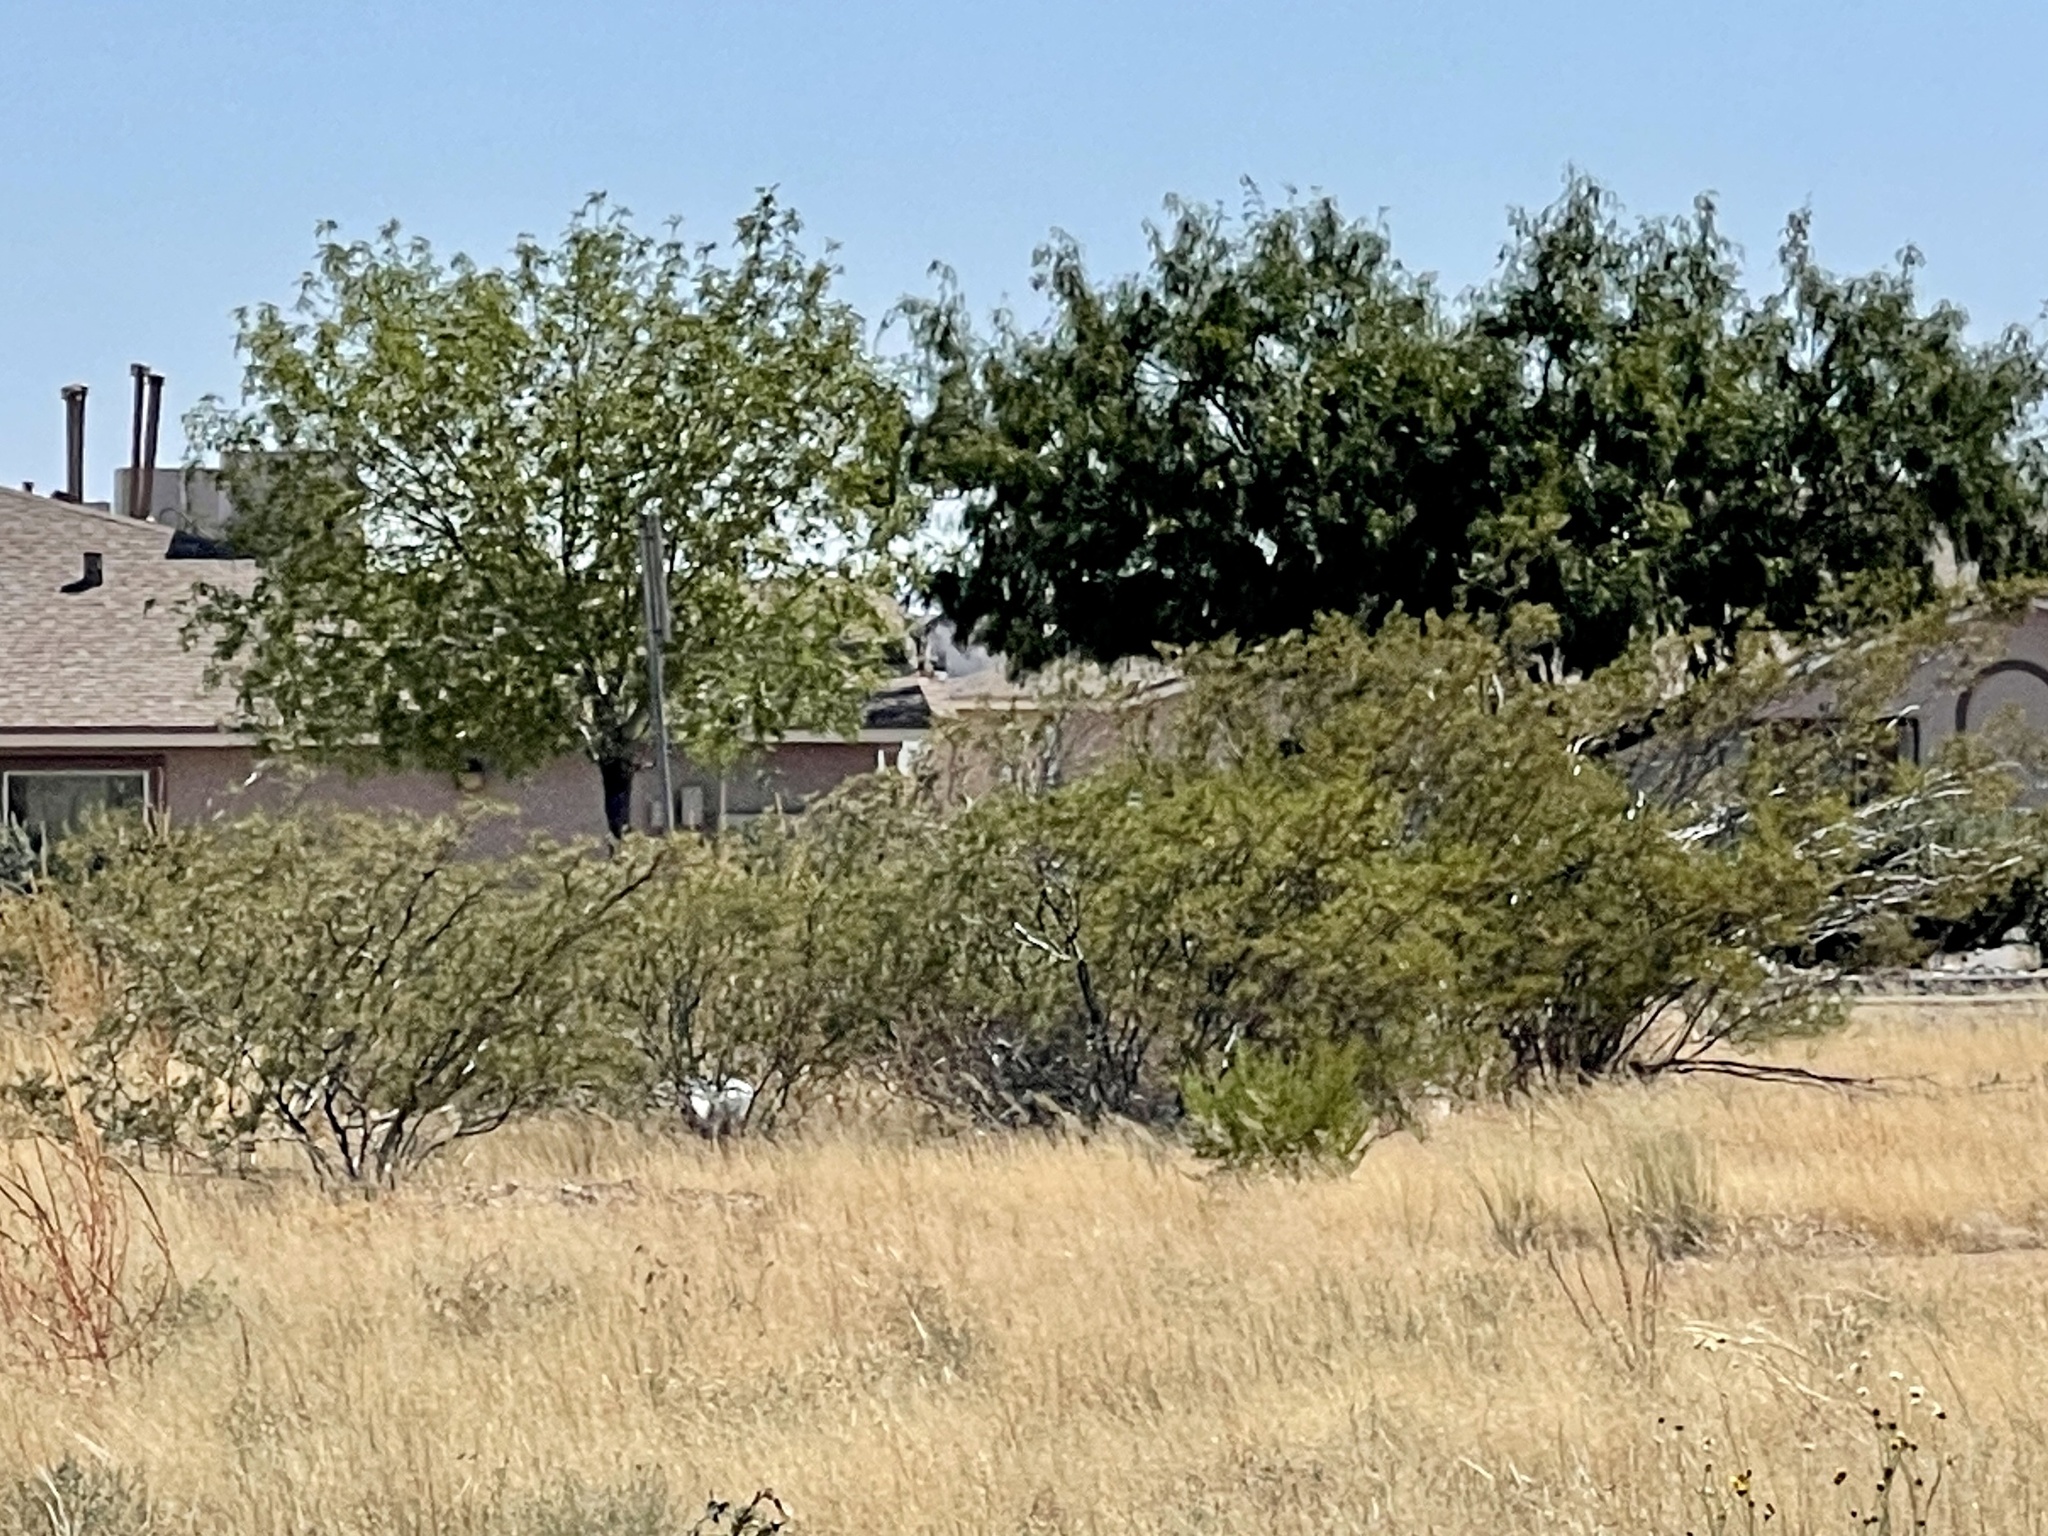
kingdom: Plantae
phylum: Tracheophyta
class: Magnoliopsida
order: Zygophyllales
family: Zygophyllaceae
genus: Larrea
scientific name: Larrea tridentata
